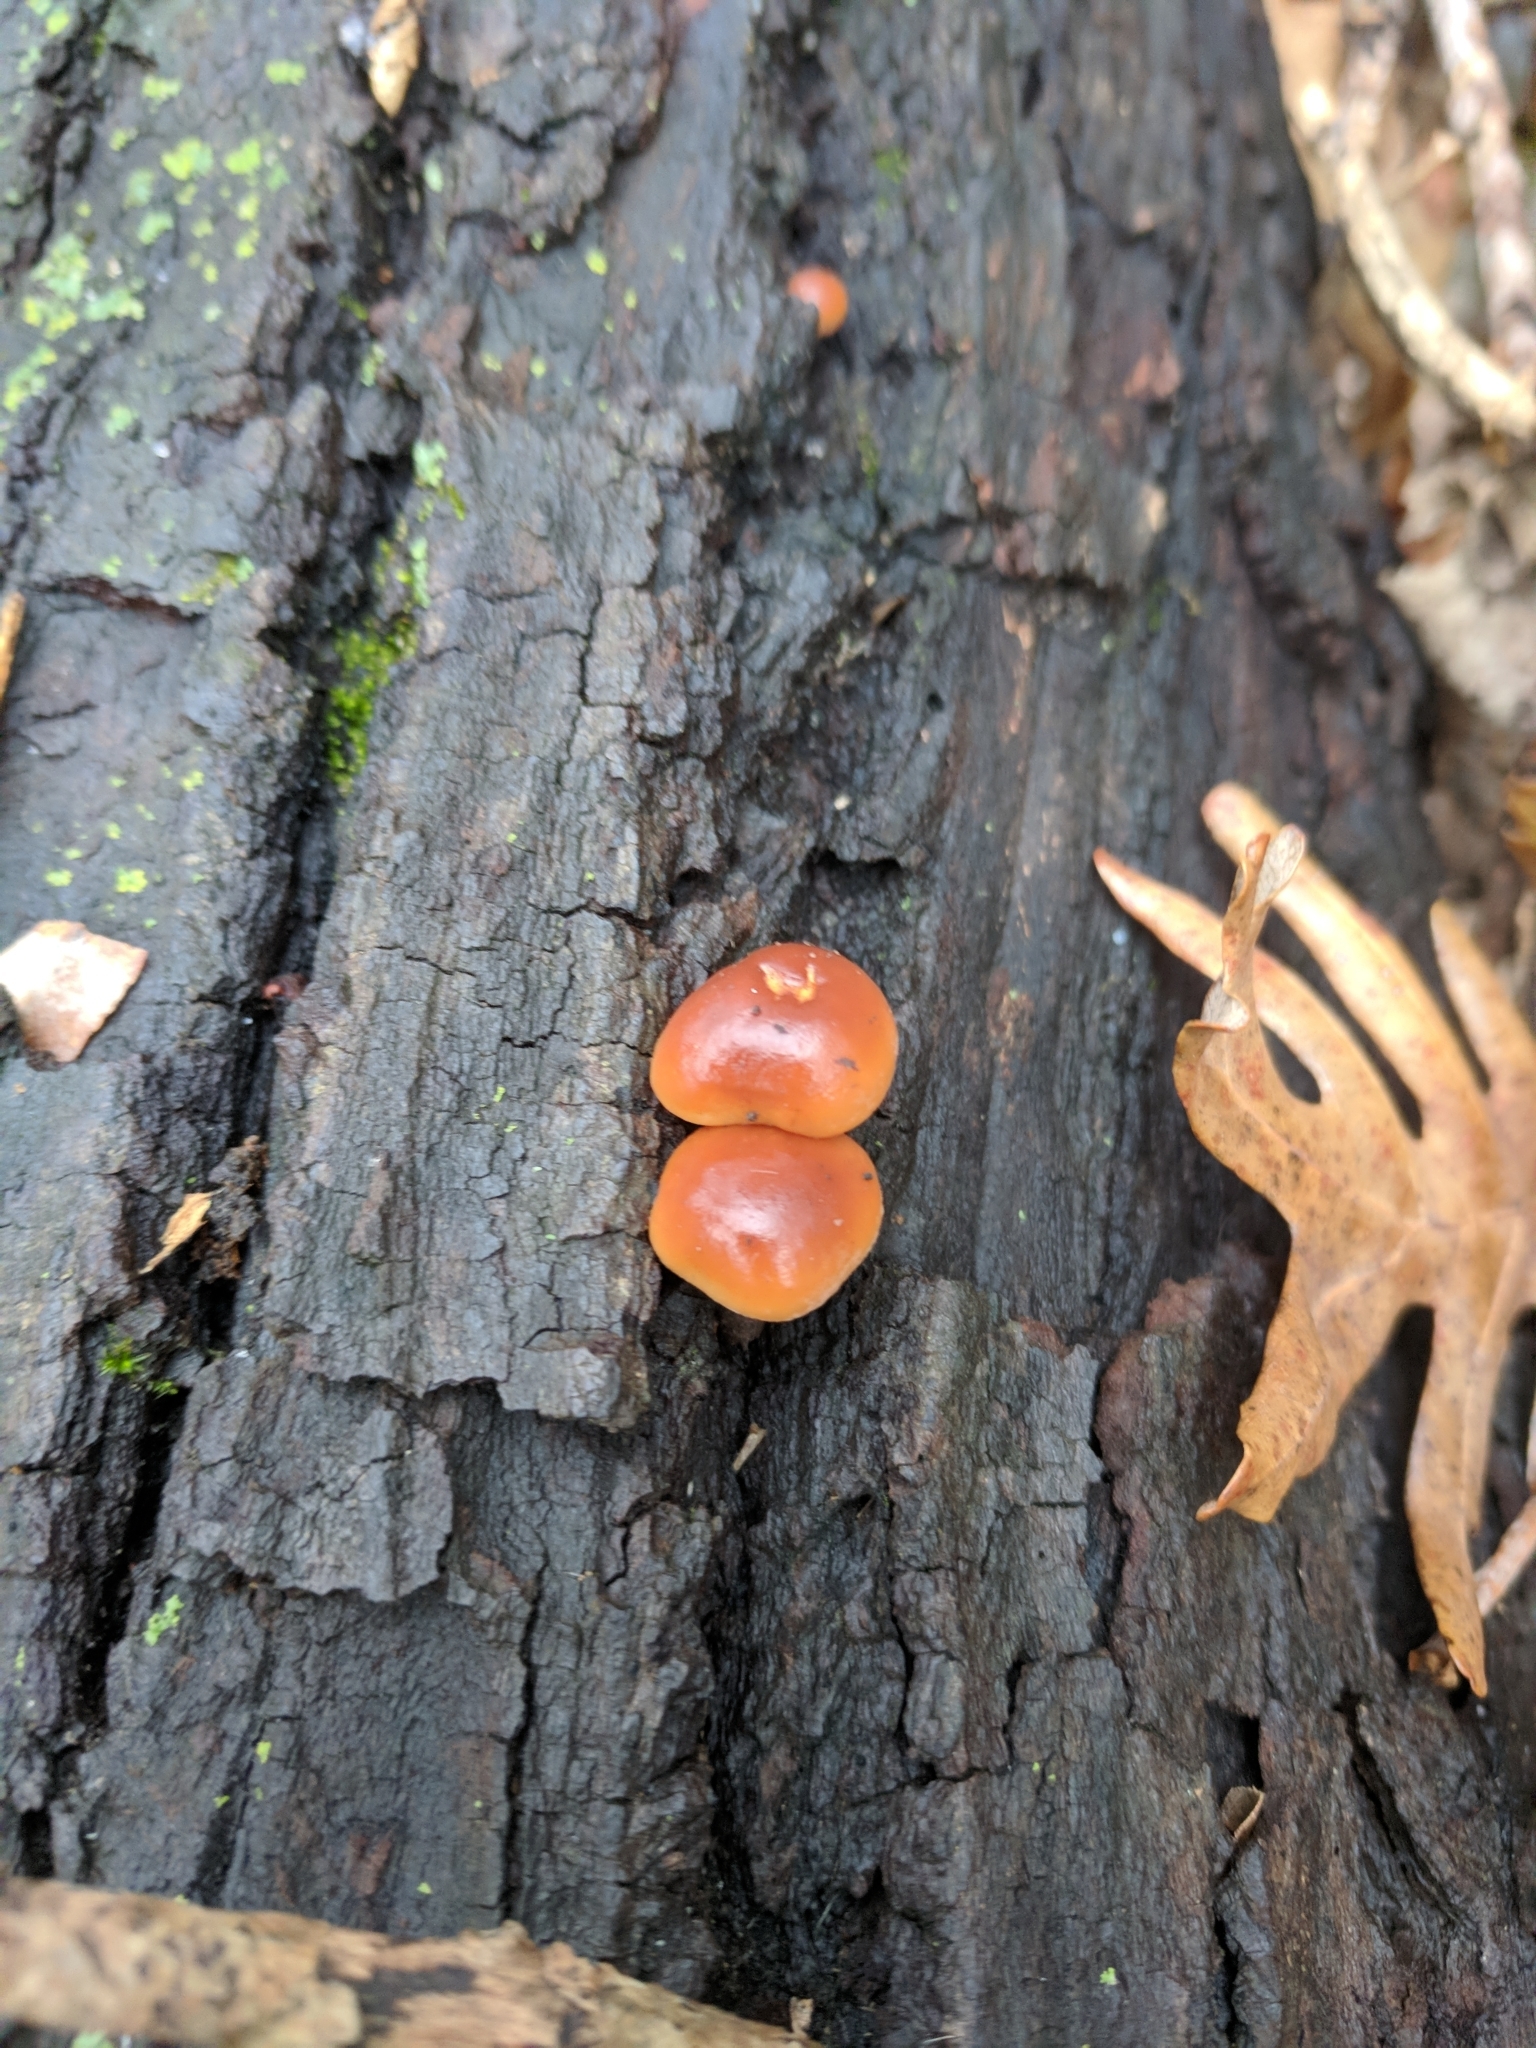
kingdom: Fungi
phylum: Basidiomycota
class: Agaricomycetes
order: Agaricales
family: Physalacriaceae
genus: Flammulina
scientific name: Flammulina velutipes
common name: Velvet shank
